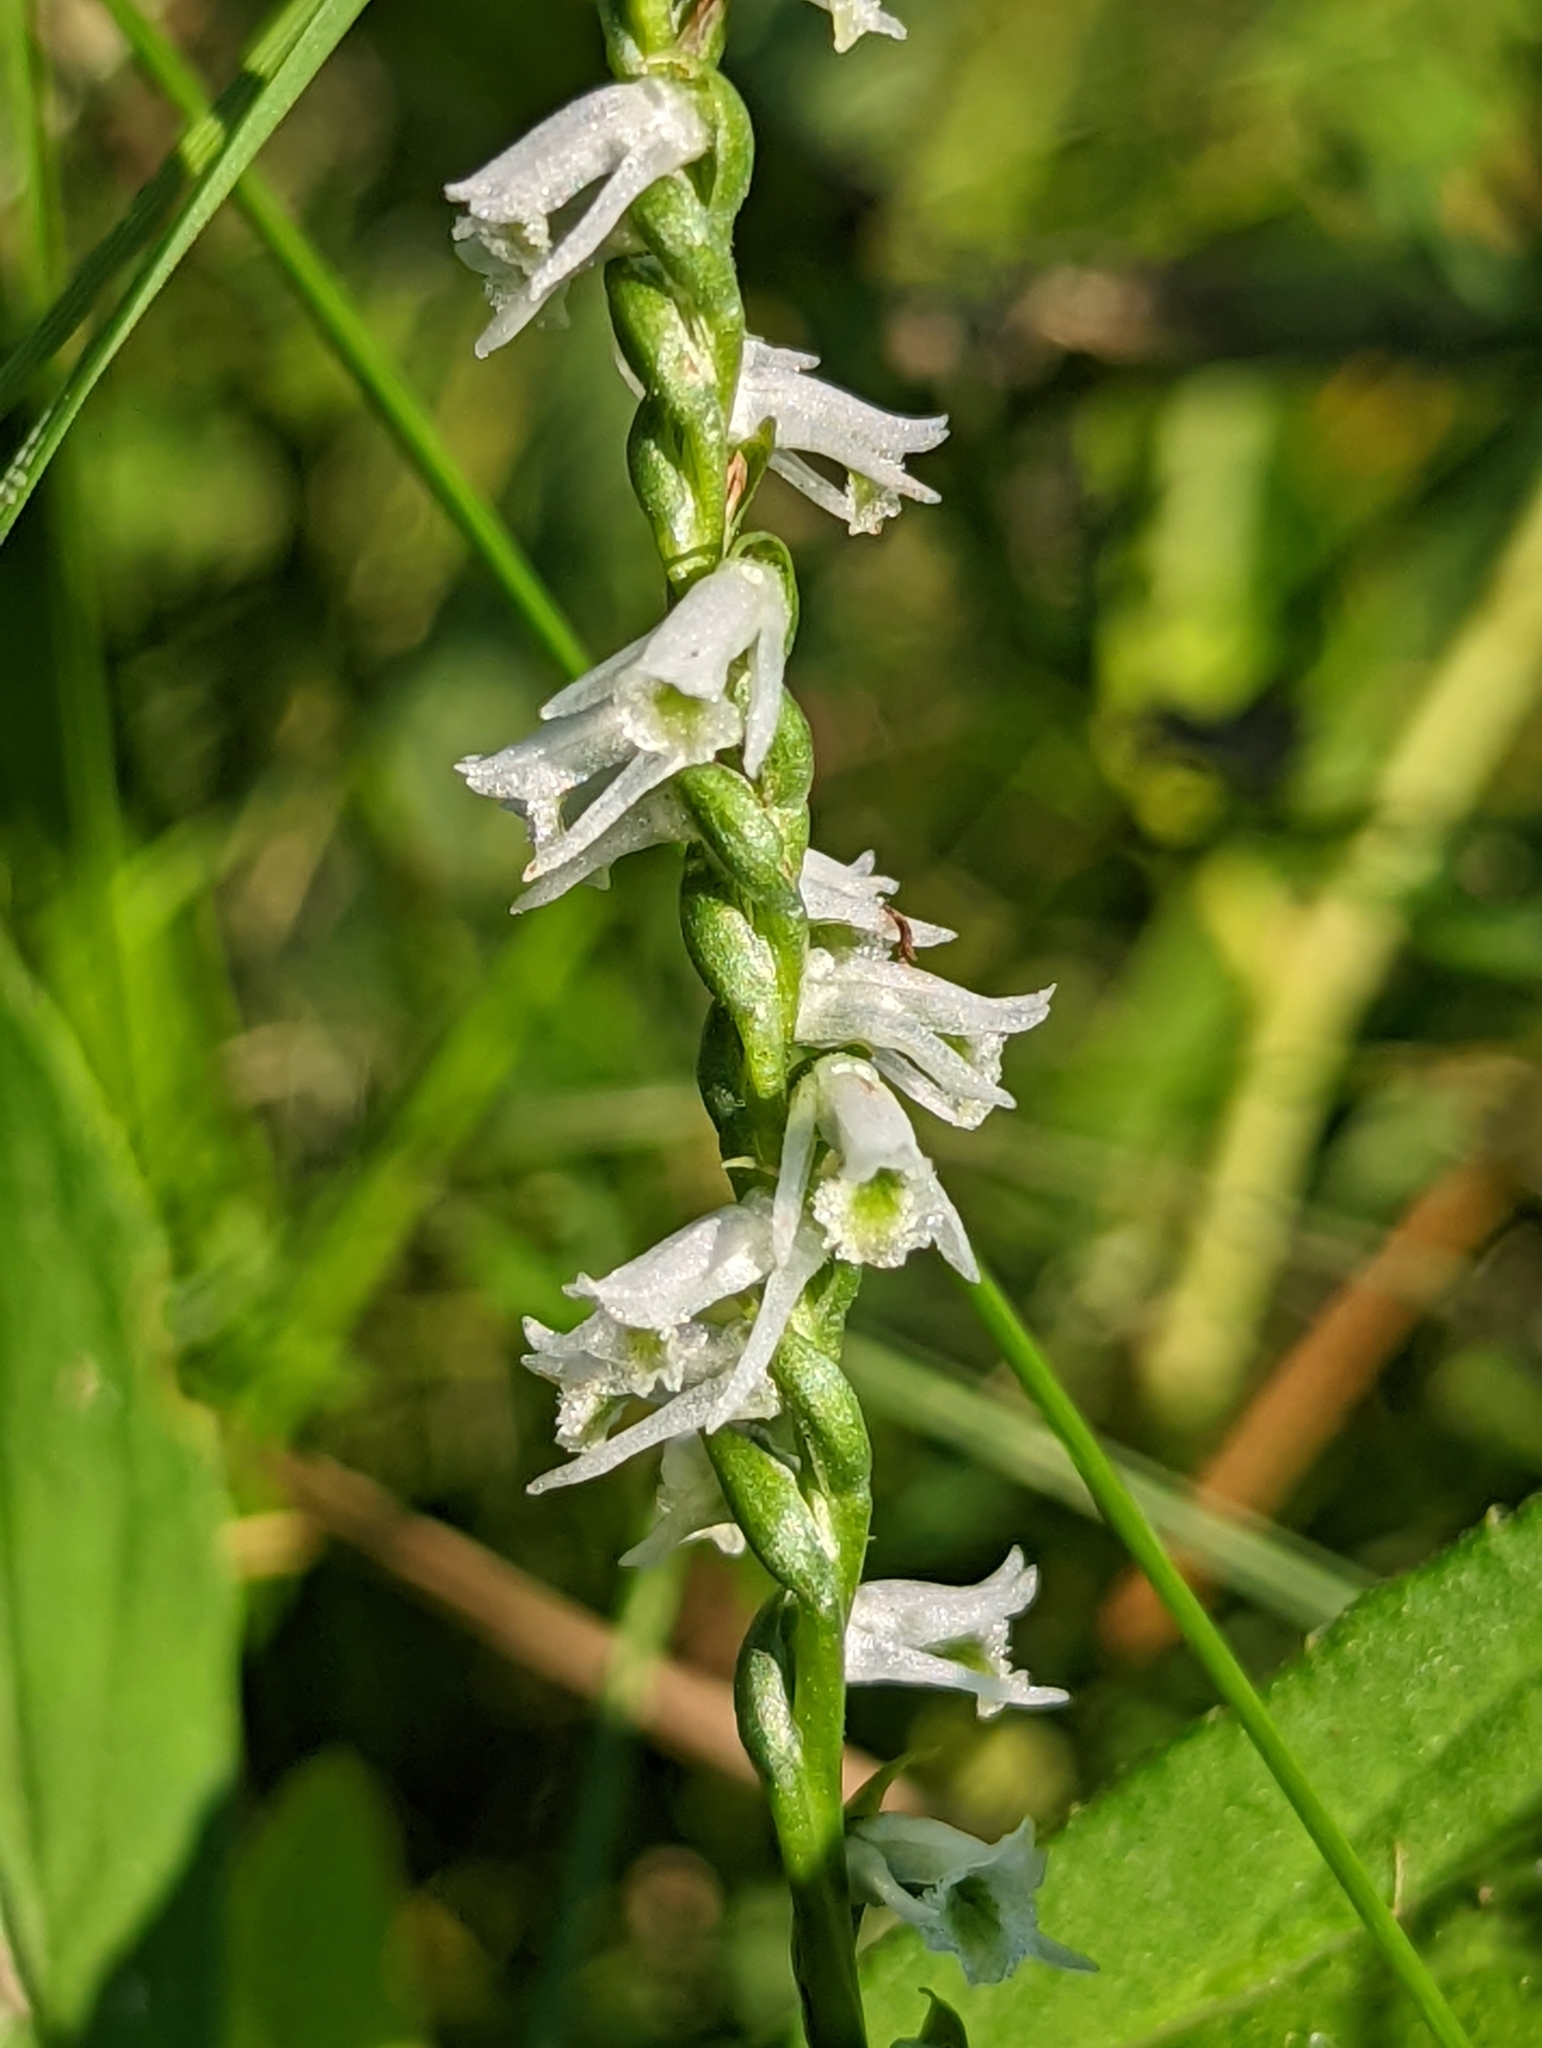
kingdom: Plantae
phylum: Tracheophyta
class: Liliopsida
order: Asparagales
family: Orchidaceae
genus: Spiranthes
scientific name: Spiranthes lacera
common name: Northern slender ladies'-tresses
